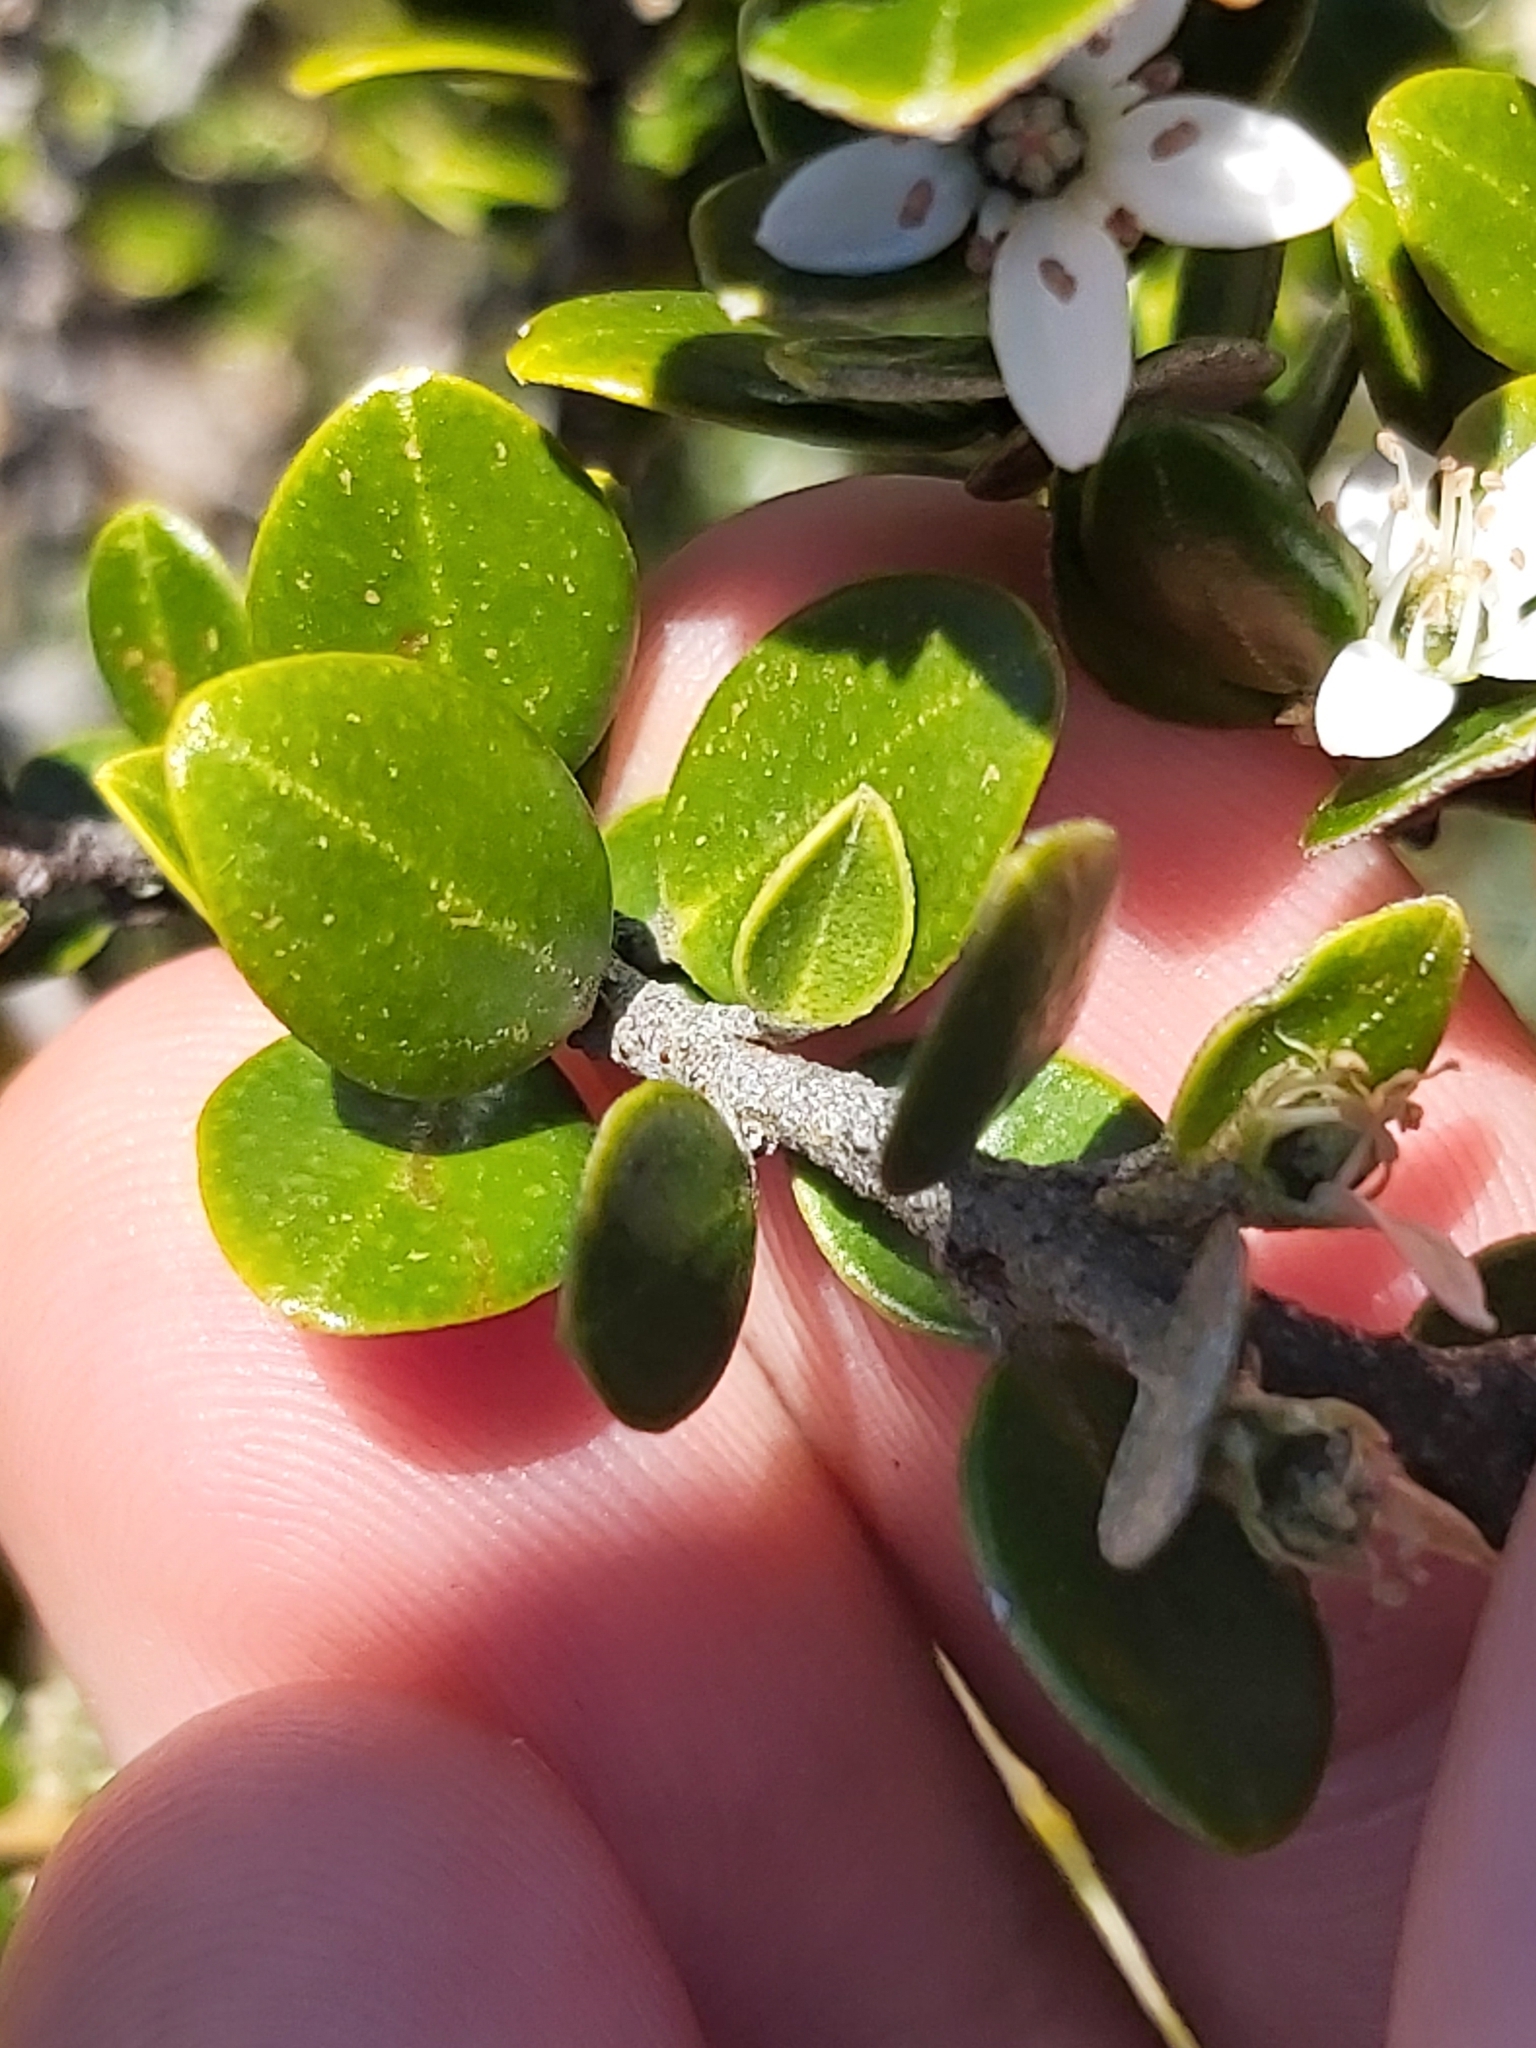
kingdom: Plantae
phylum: Tracheophyta
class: Magnoliopsida
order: Sapindales
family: Rutaceae
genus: Nematolepis
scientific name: Nematolepis ovatifolia
